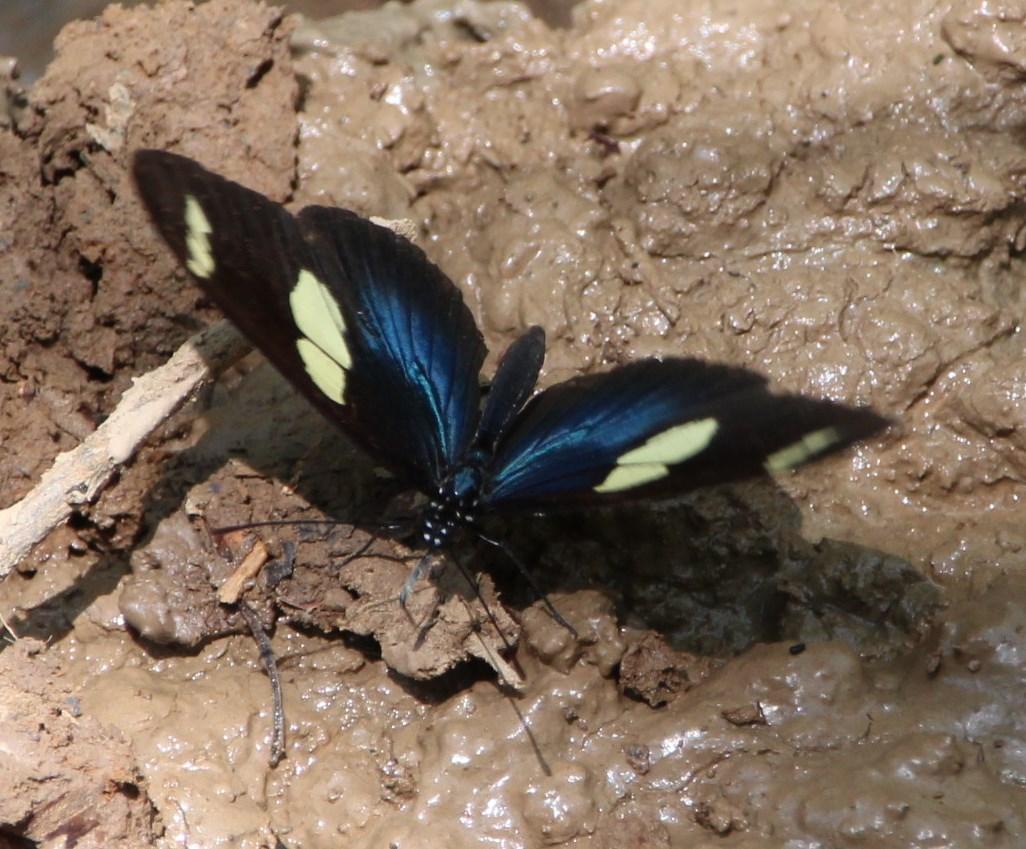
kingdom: Animalia
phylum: Arthropoda
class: Insecta
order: Lepidoptera
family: Nymphalidae
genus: Heliconius
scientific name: Heliconius doris
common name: Doris longwing
